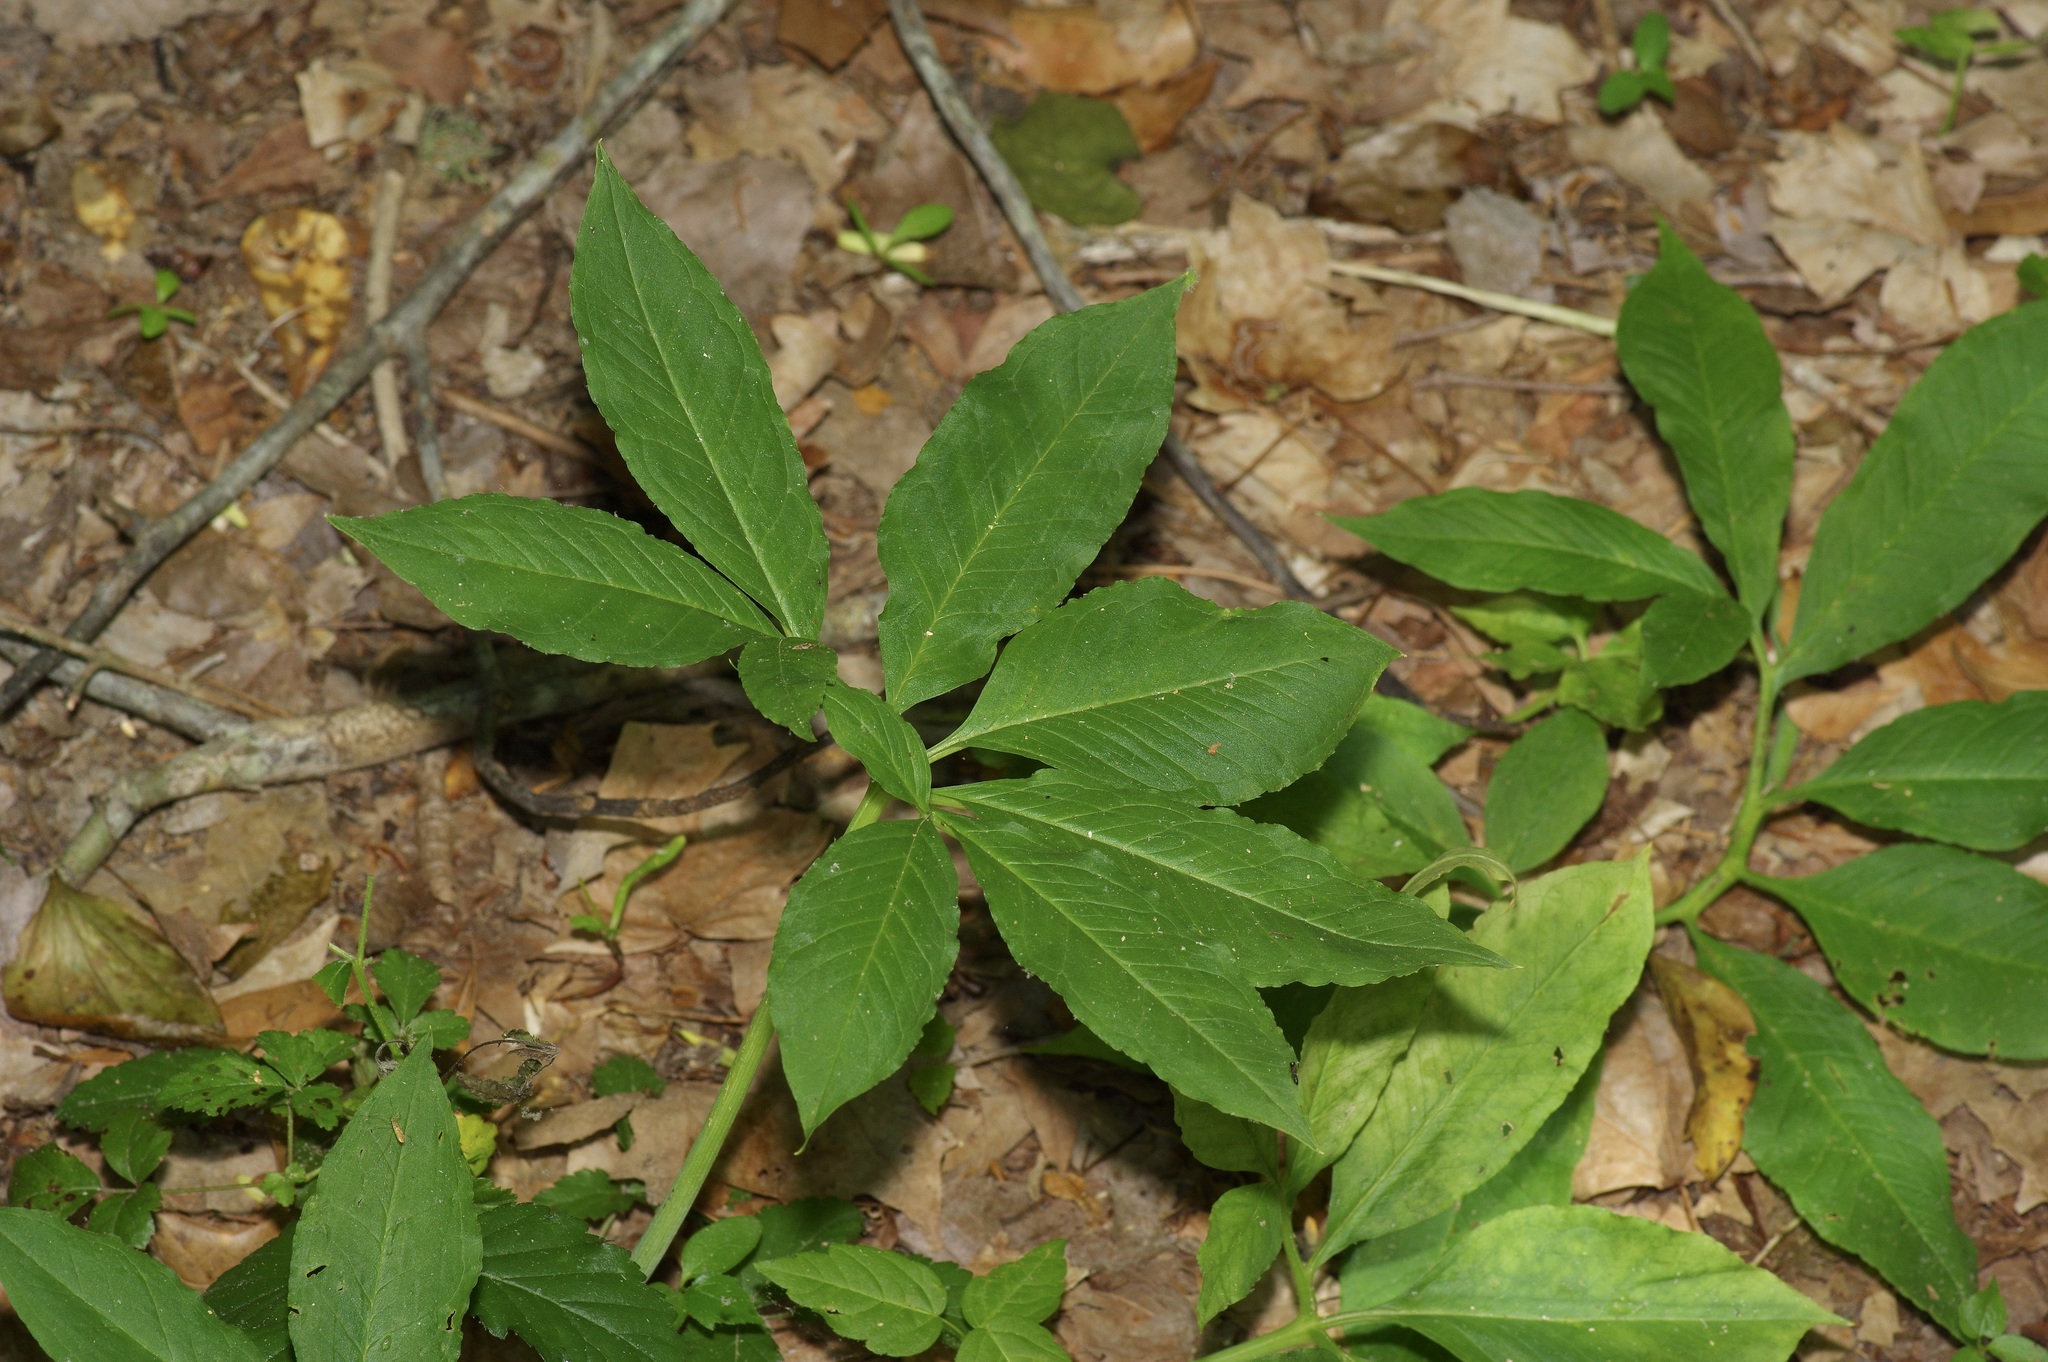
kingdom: Plantae
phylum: Tracheophyta
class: Liliopsida
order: Alismatales
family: Araceae
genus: Arisaema
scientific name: Arisaema dracontium
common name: Dragon-arum
